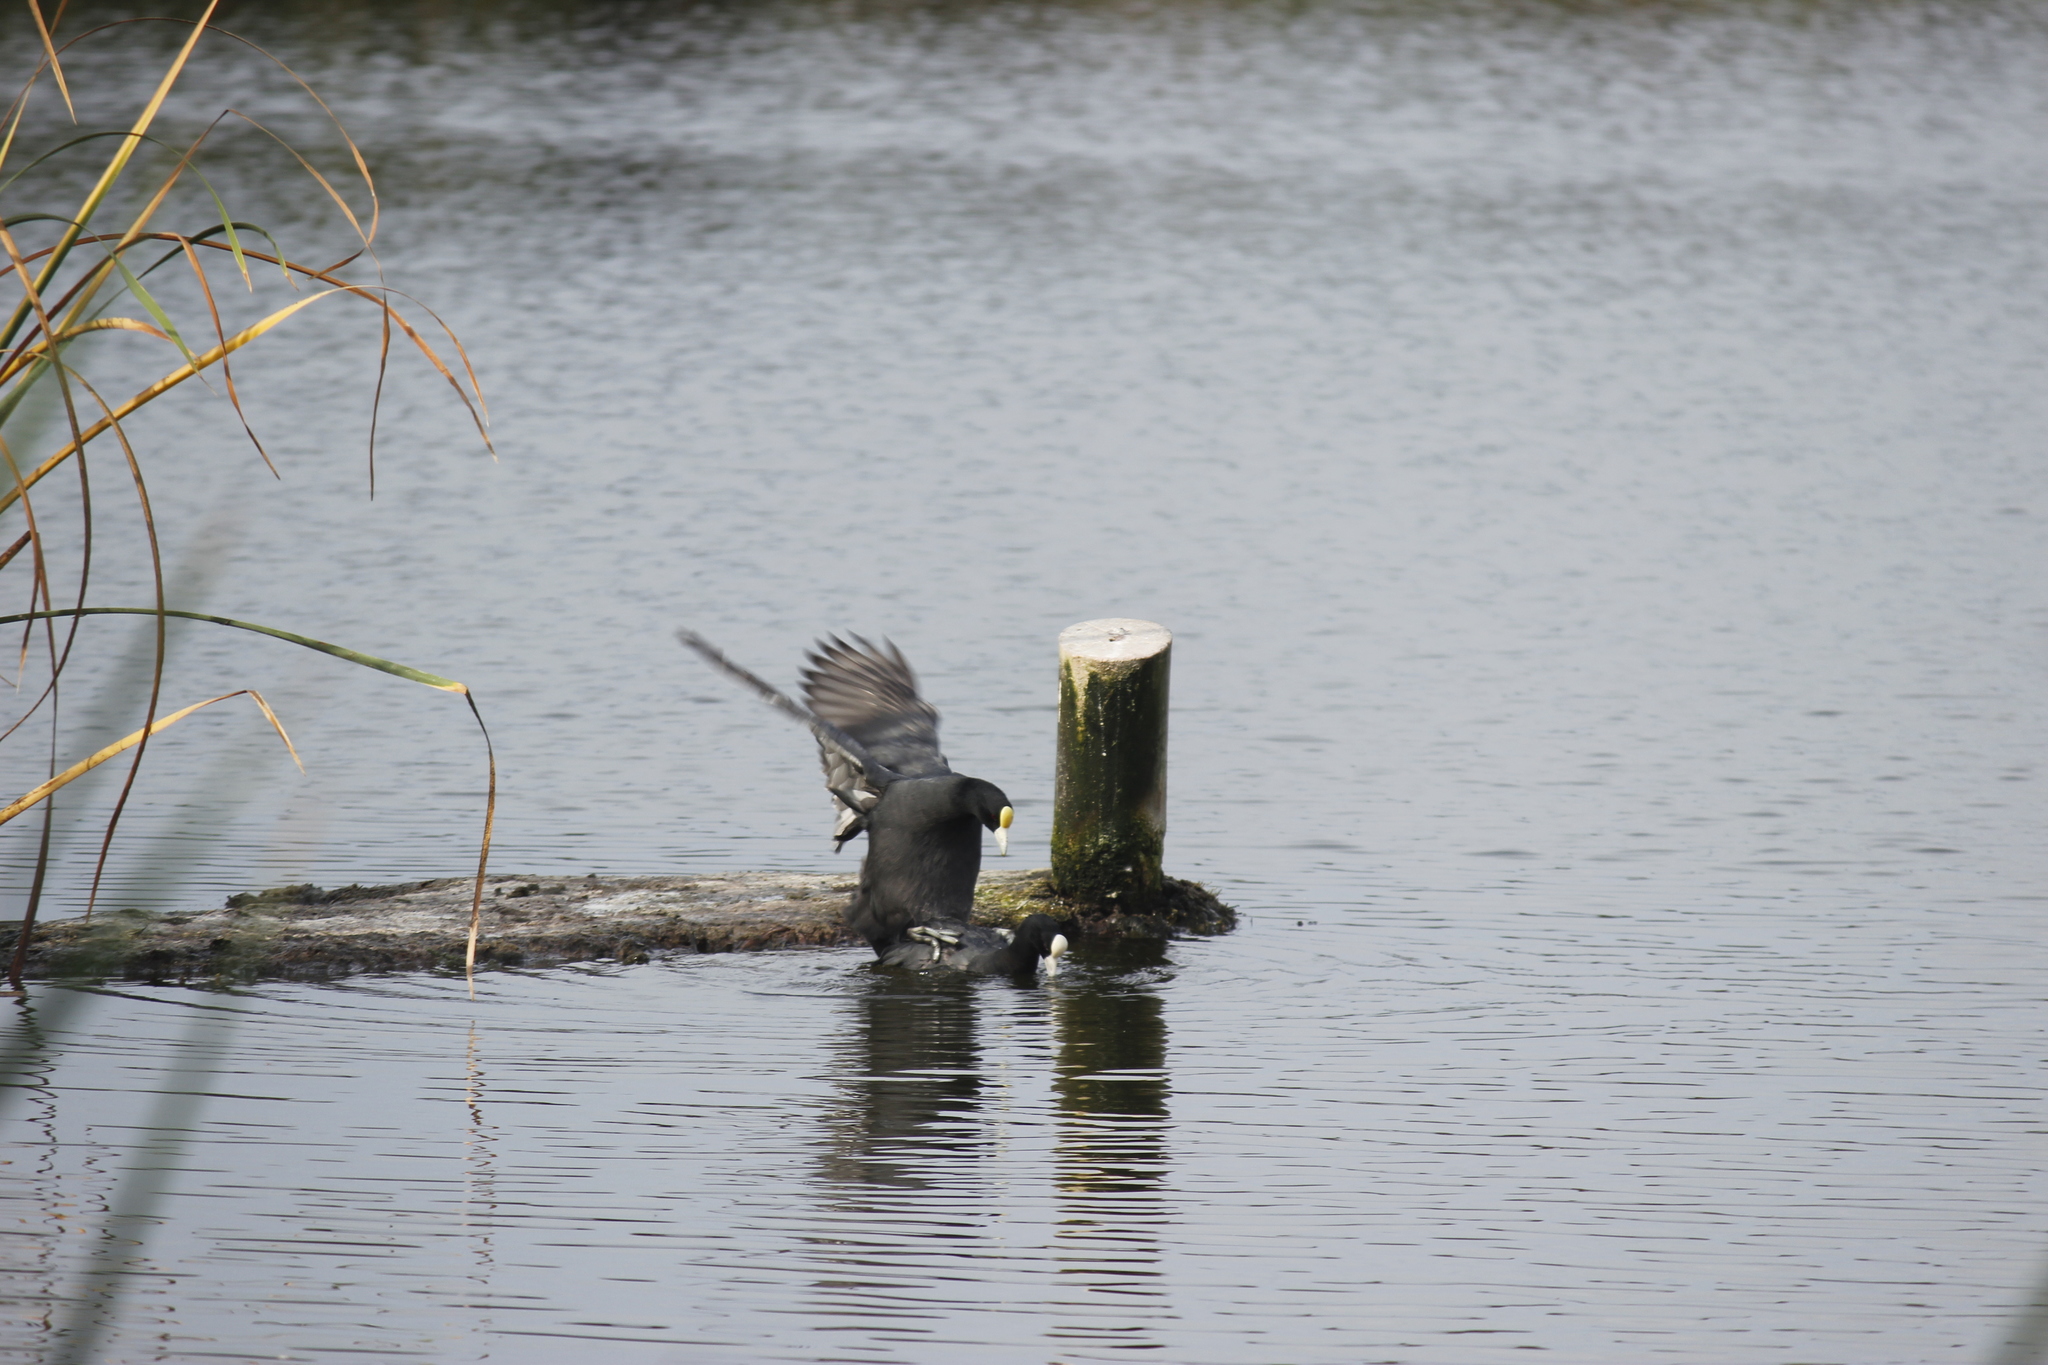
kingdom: Animalia
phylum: Chordata
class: Aves
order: Gruiformes
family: Rallidae
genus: Fulica
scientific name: Fulica ardesiaca
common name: Andean coot
